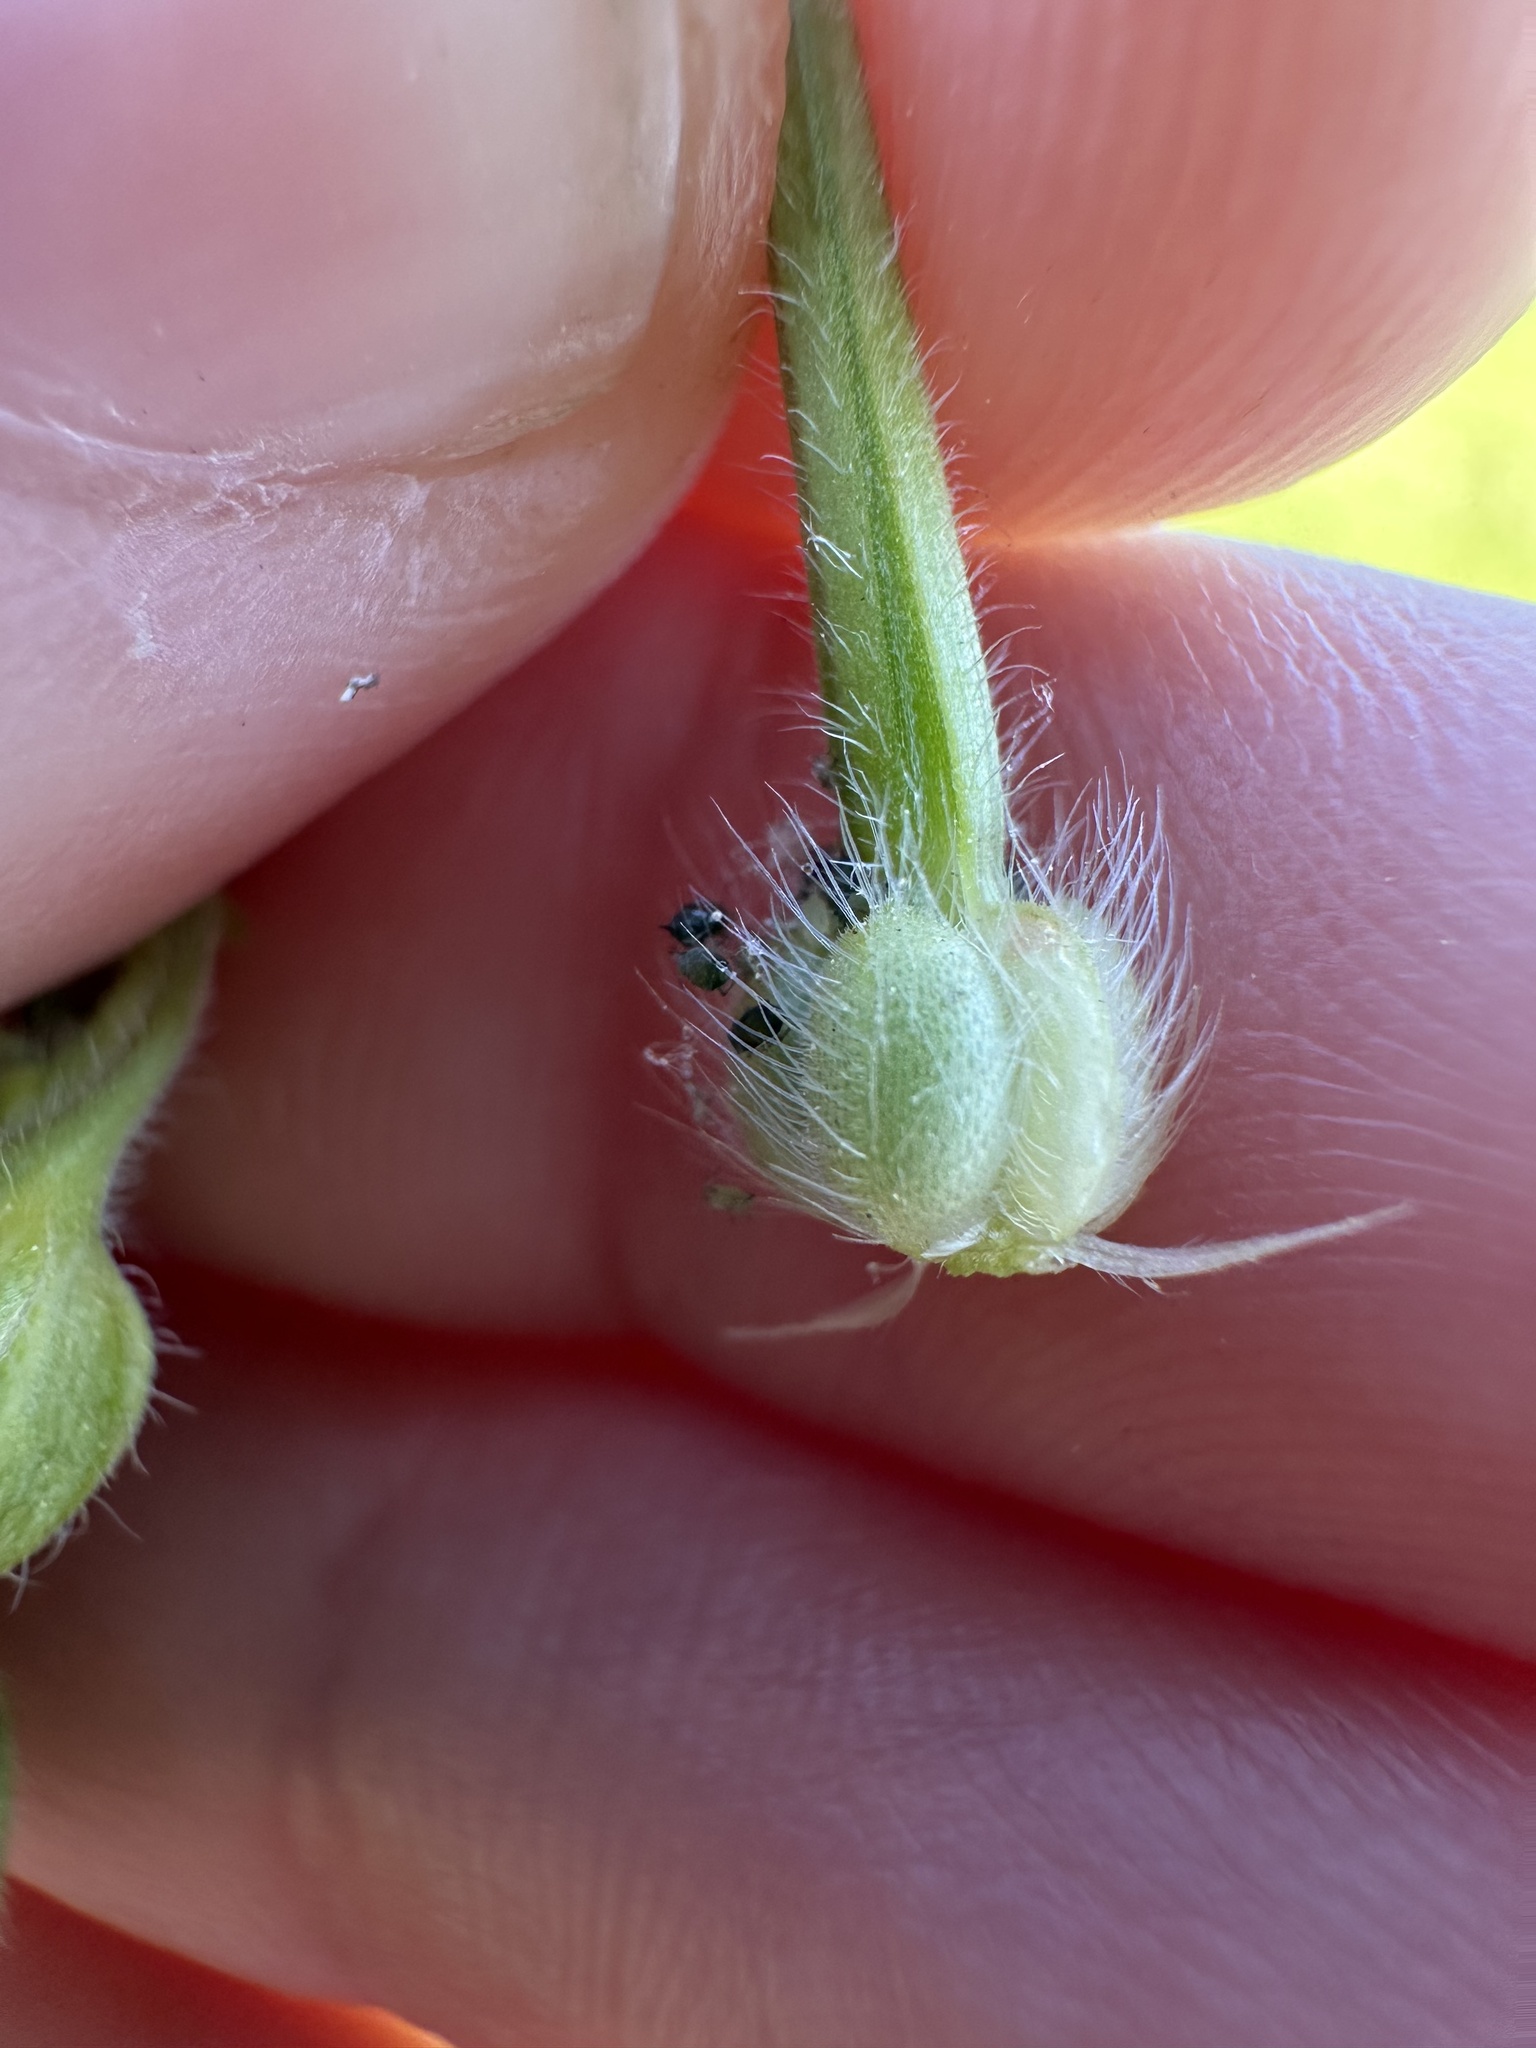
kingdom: Plantae
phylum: Tracheophyta
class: Magnoliopsida
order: Geraniales
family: Geraniaceae
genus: Geranium
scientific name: Geranium carolinianum
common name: Carolina crane's-bill
